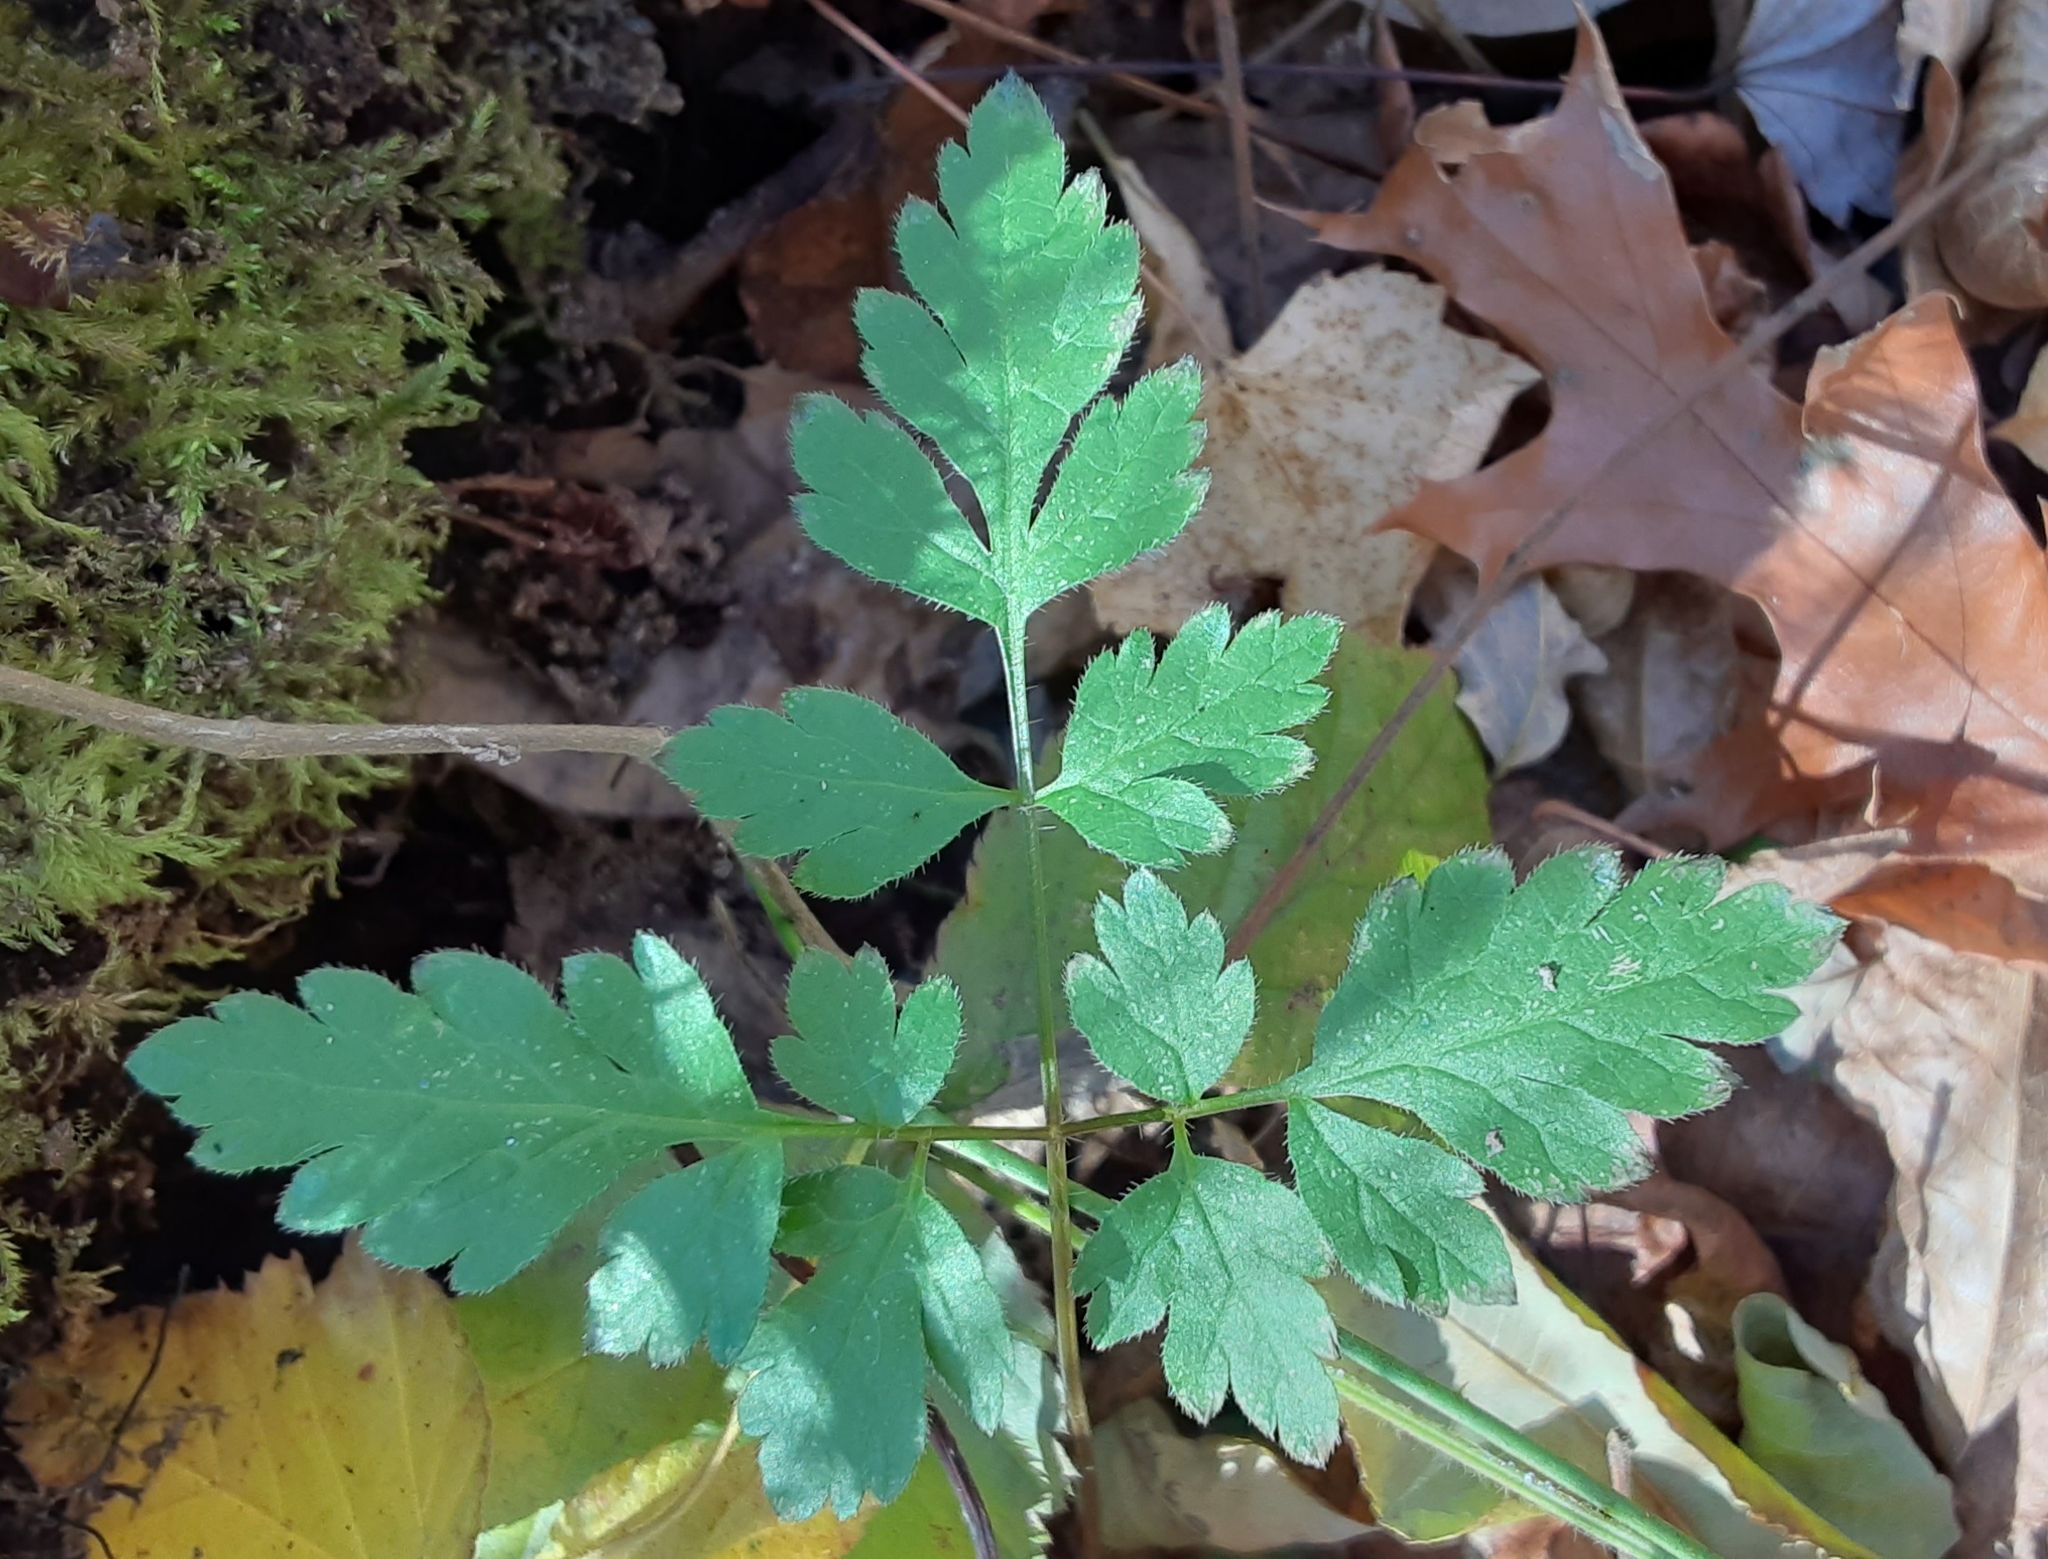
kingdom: Plantae
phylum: Tracheophyta
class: Magnoliopsida
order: Geraniales
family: Geraniaceae
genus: Geranium
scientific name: Geranium robertianum
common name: Herb-robert
